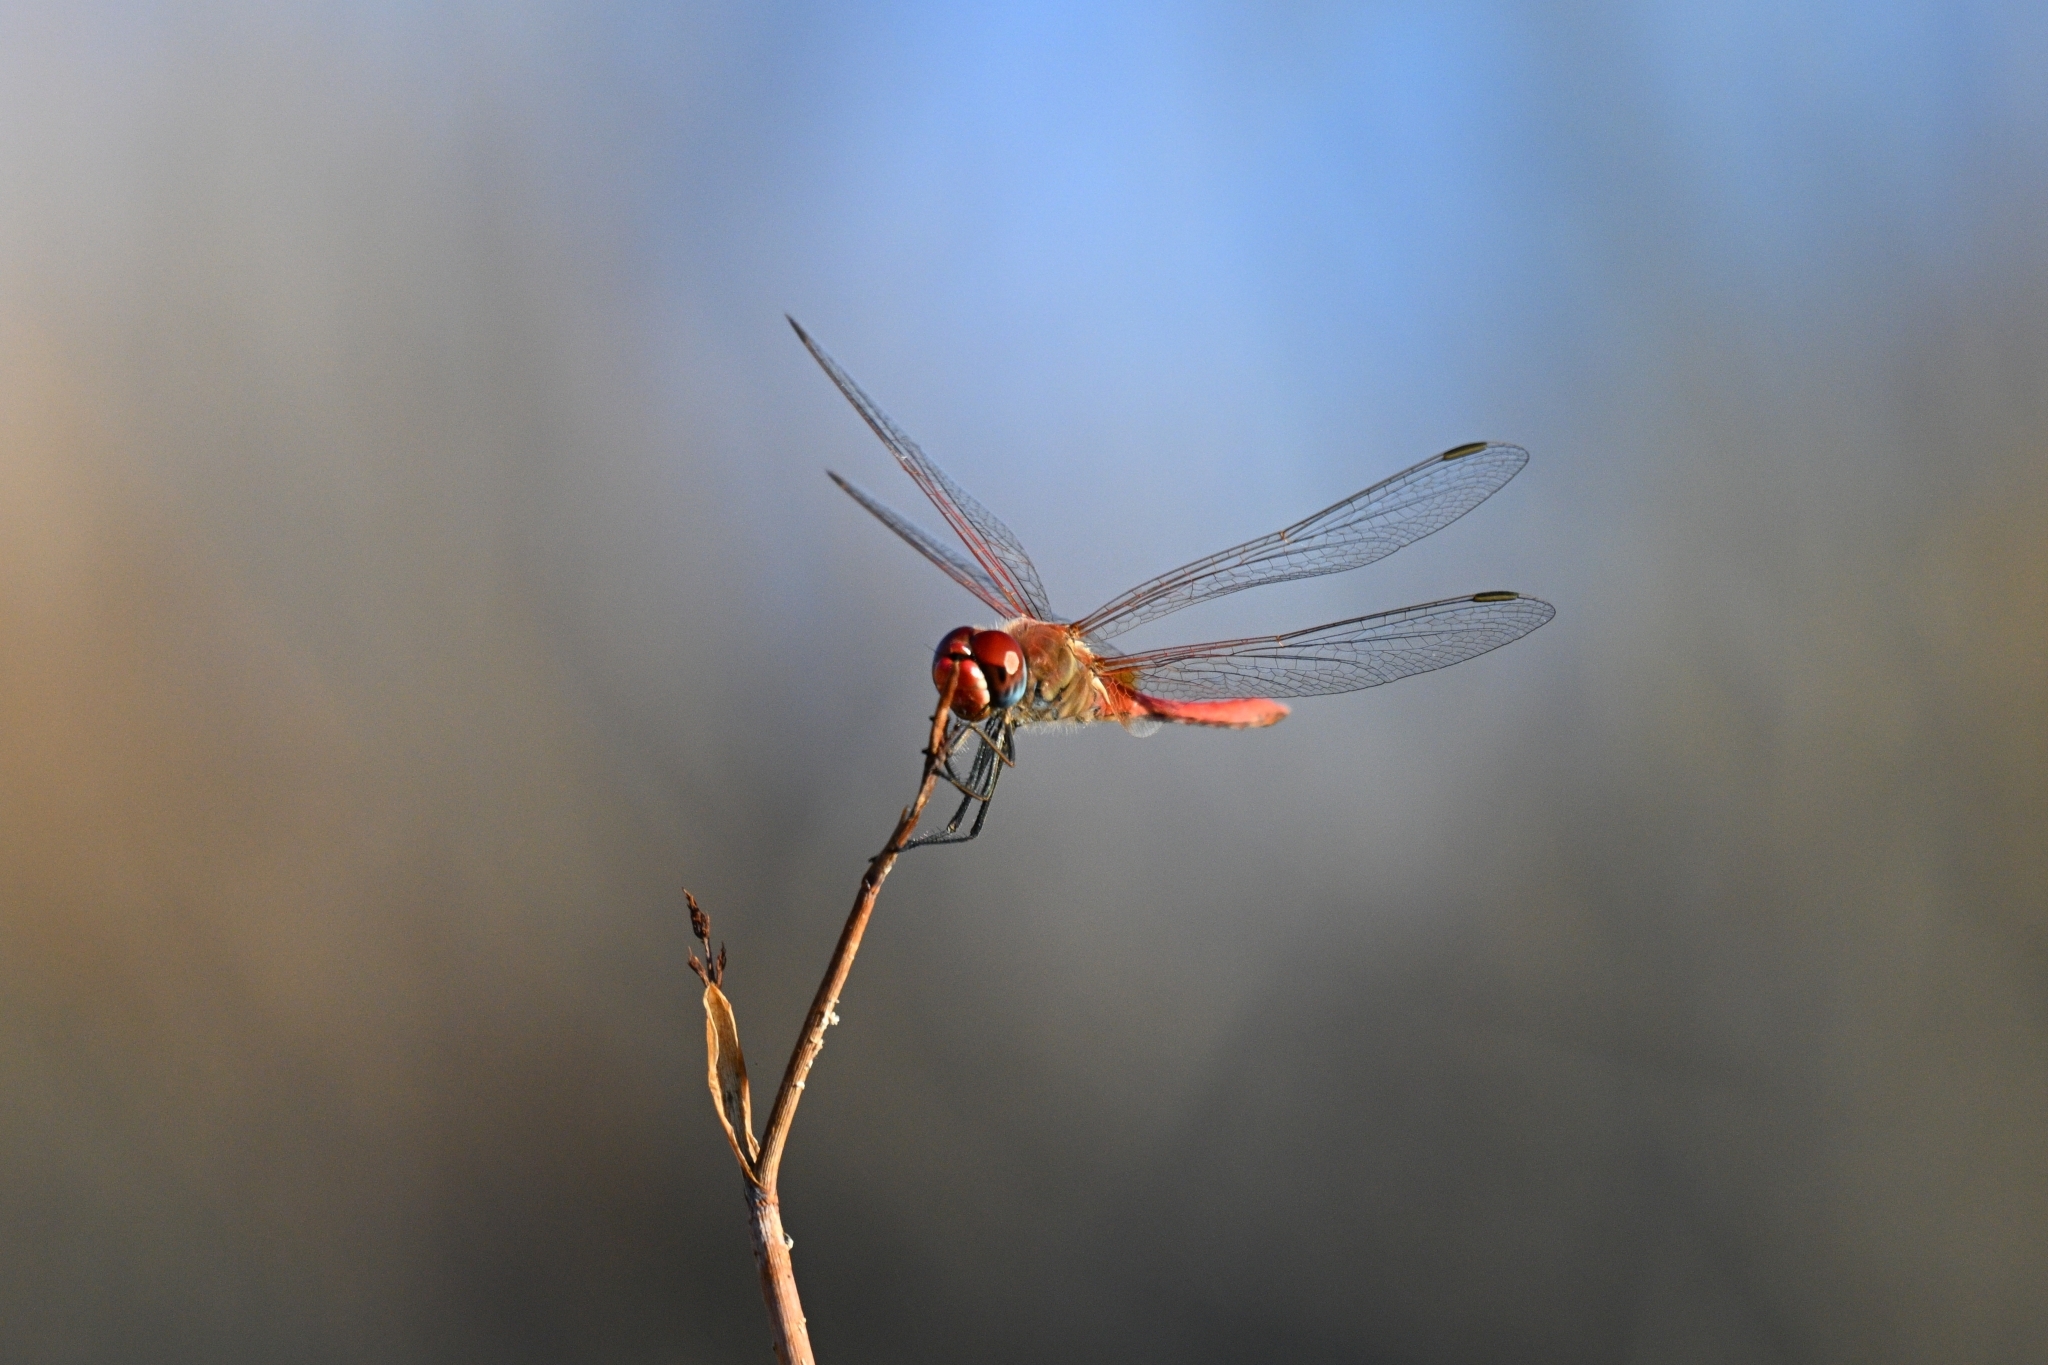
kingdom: Animalia
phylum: Arthropoda
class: Insecta
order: Odonata
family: Libellulidae
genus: Sympetrum
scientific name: Sympetrum fonscolombii
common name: Red-veined darter
